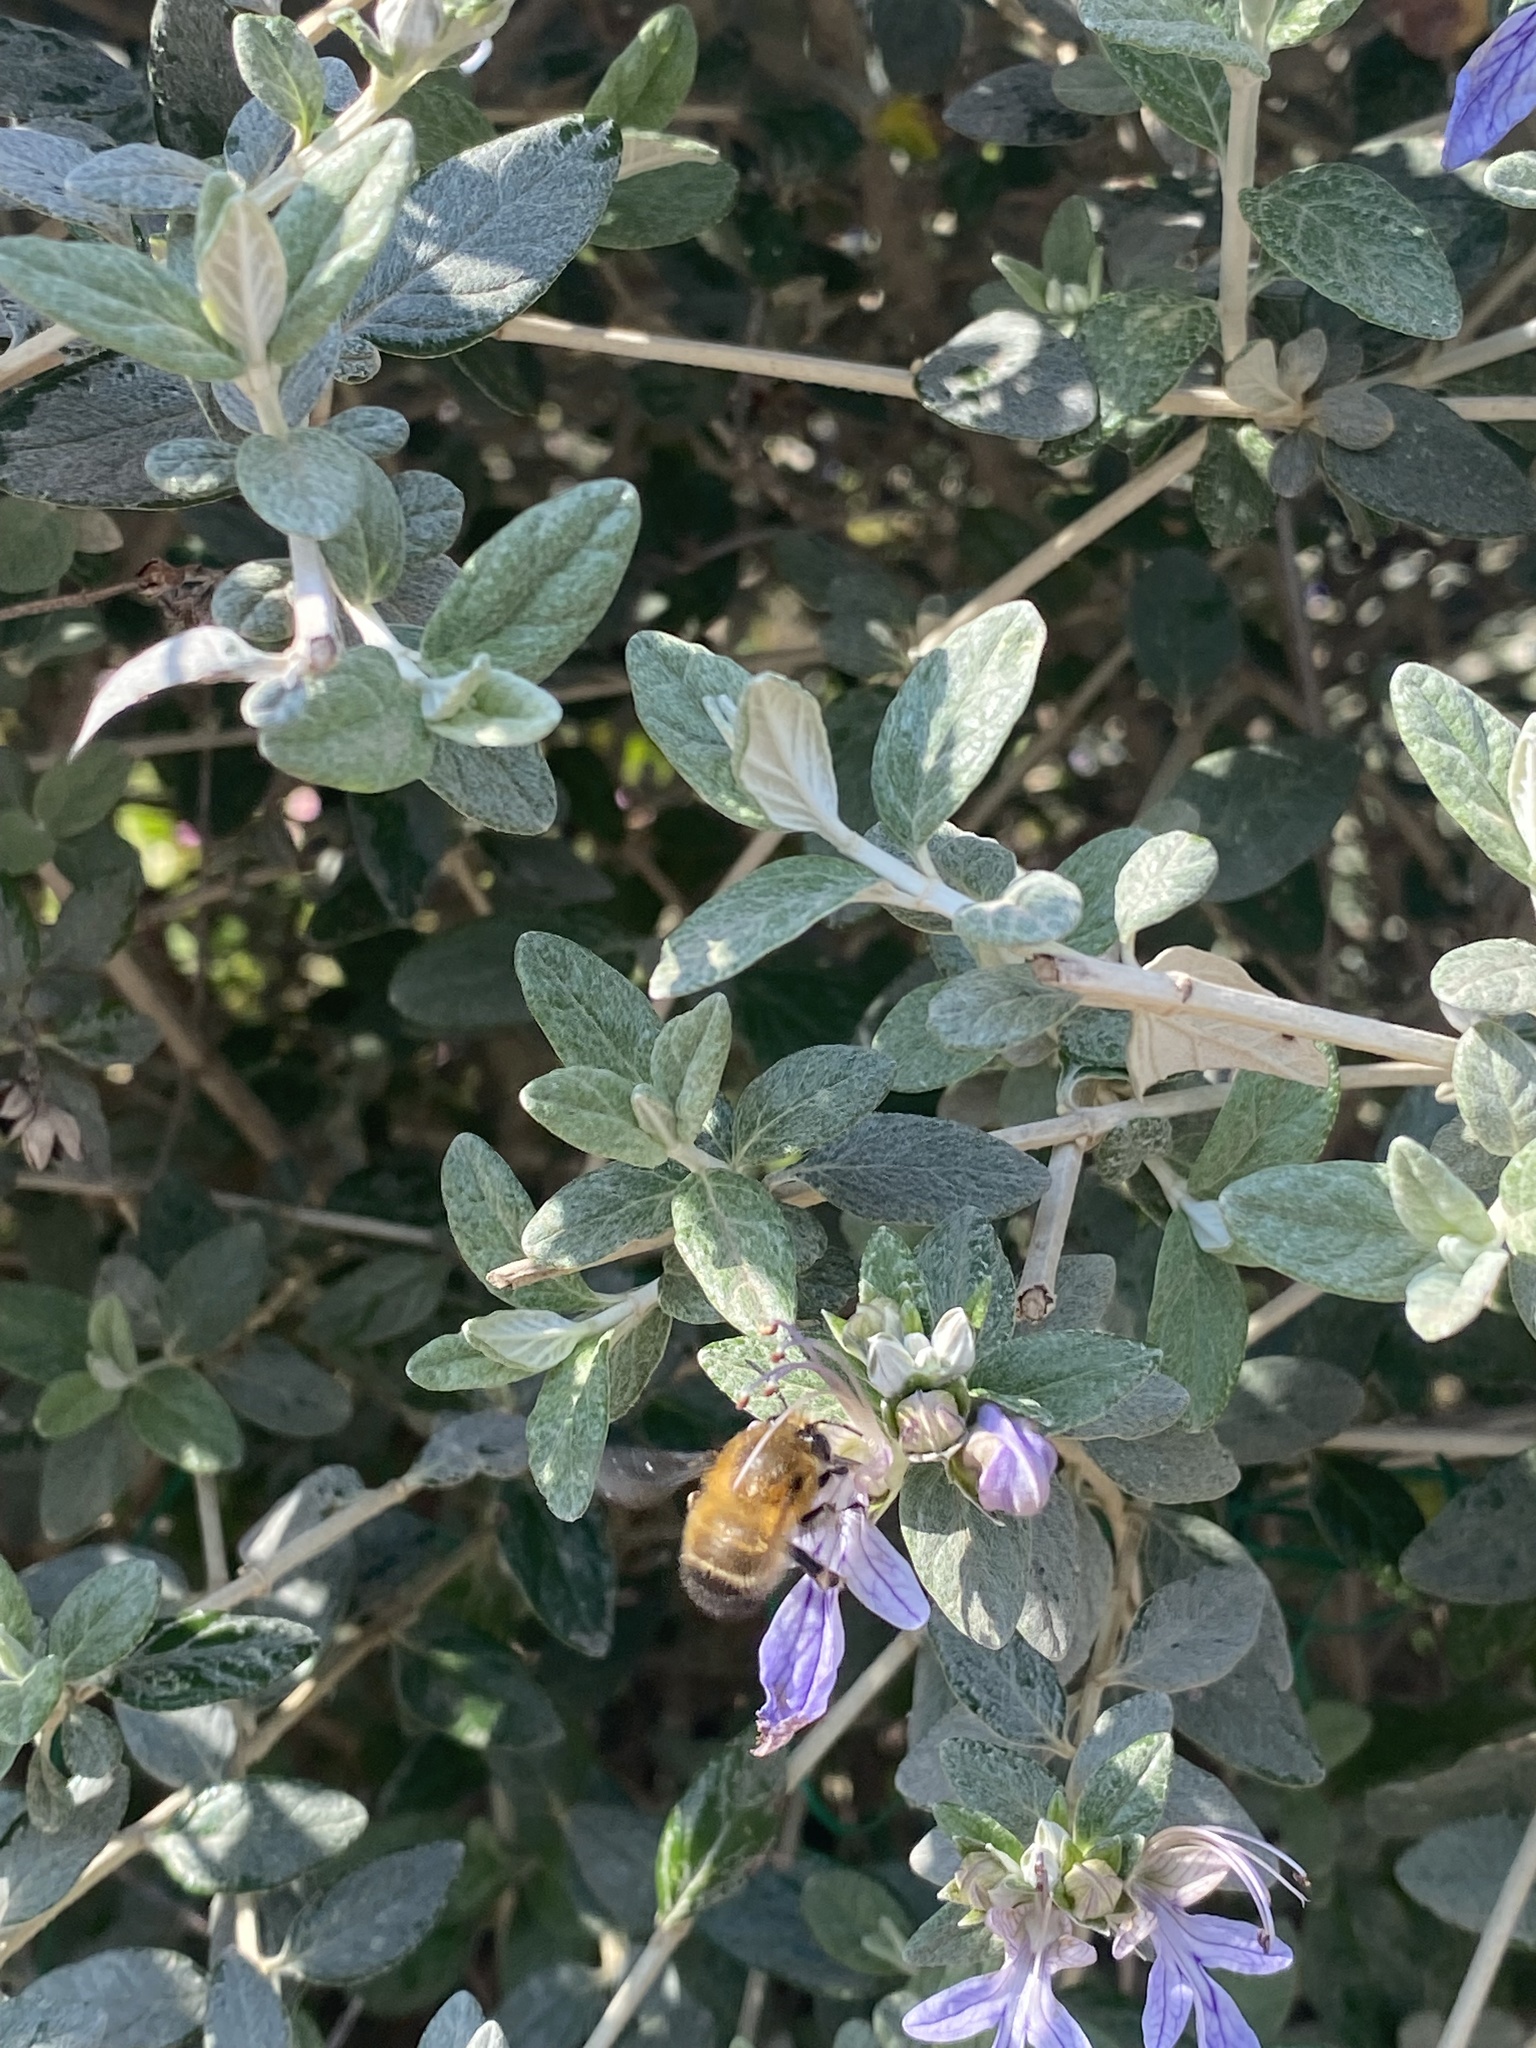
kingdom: Animalia
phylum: Arthropoda
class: Insecta
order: Hymenoptera
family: Apidae
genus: Anthophora
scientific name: Anthophora plumipes
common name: Hairy-footed flower bee
